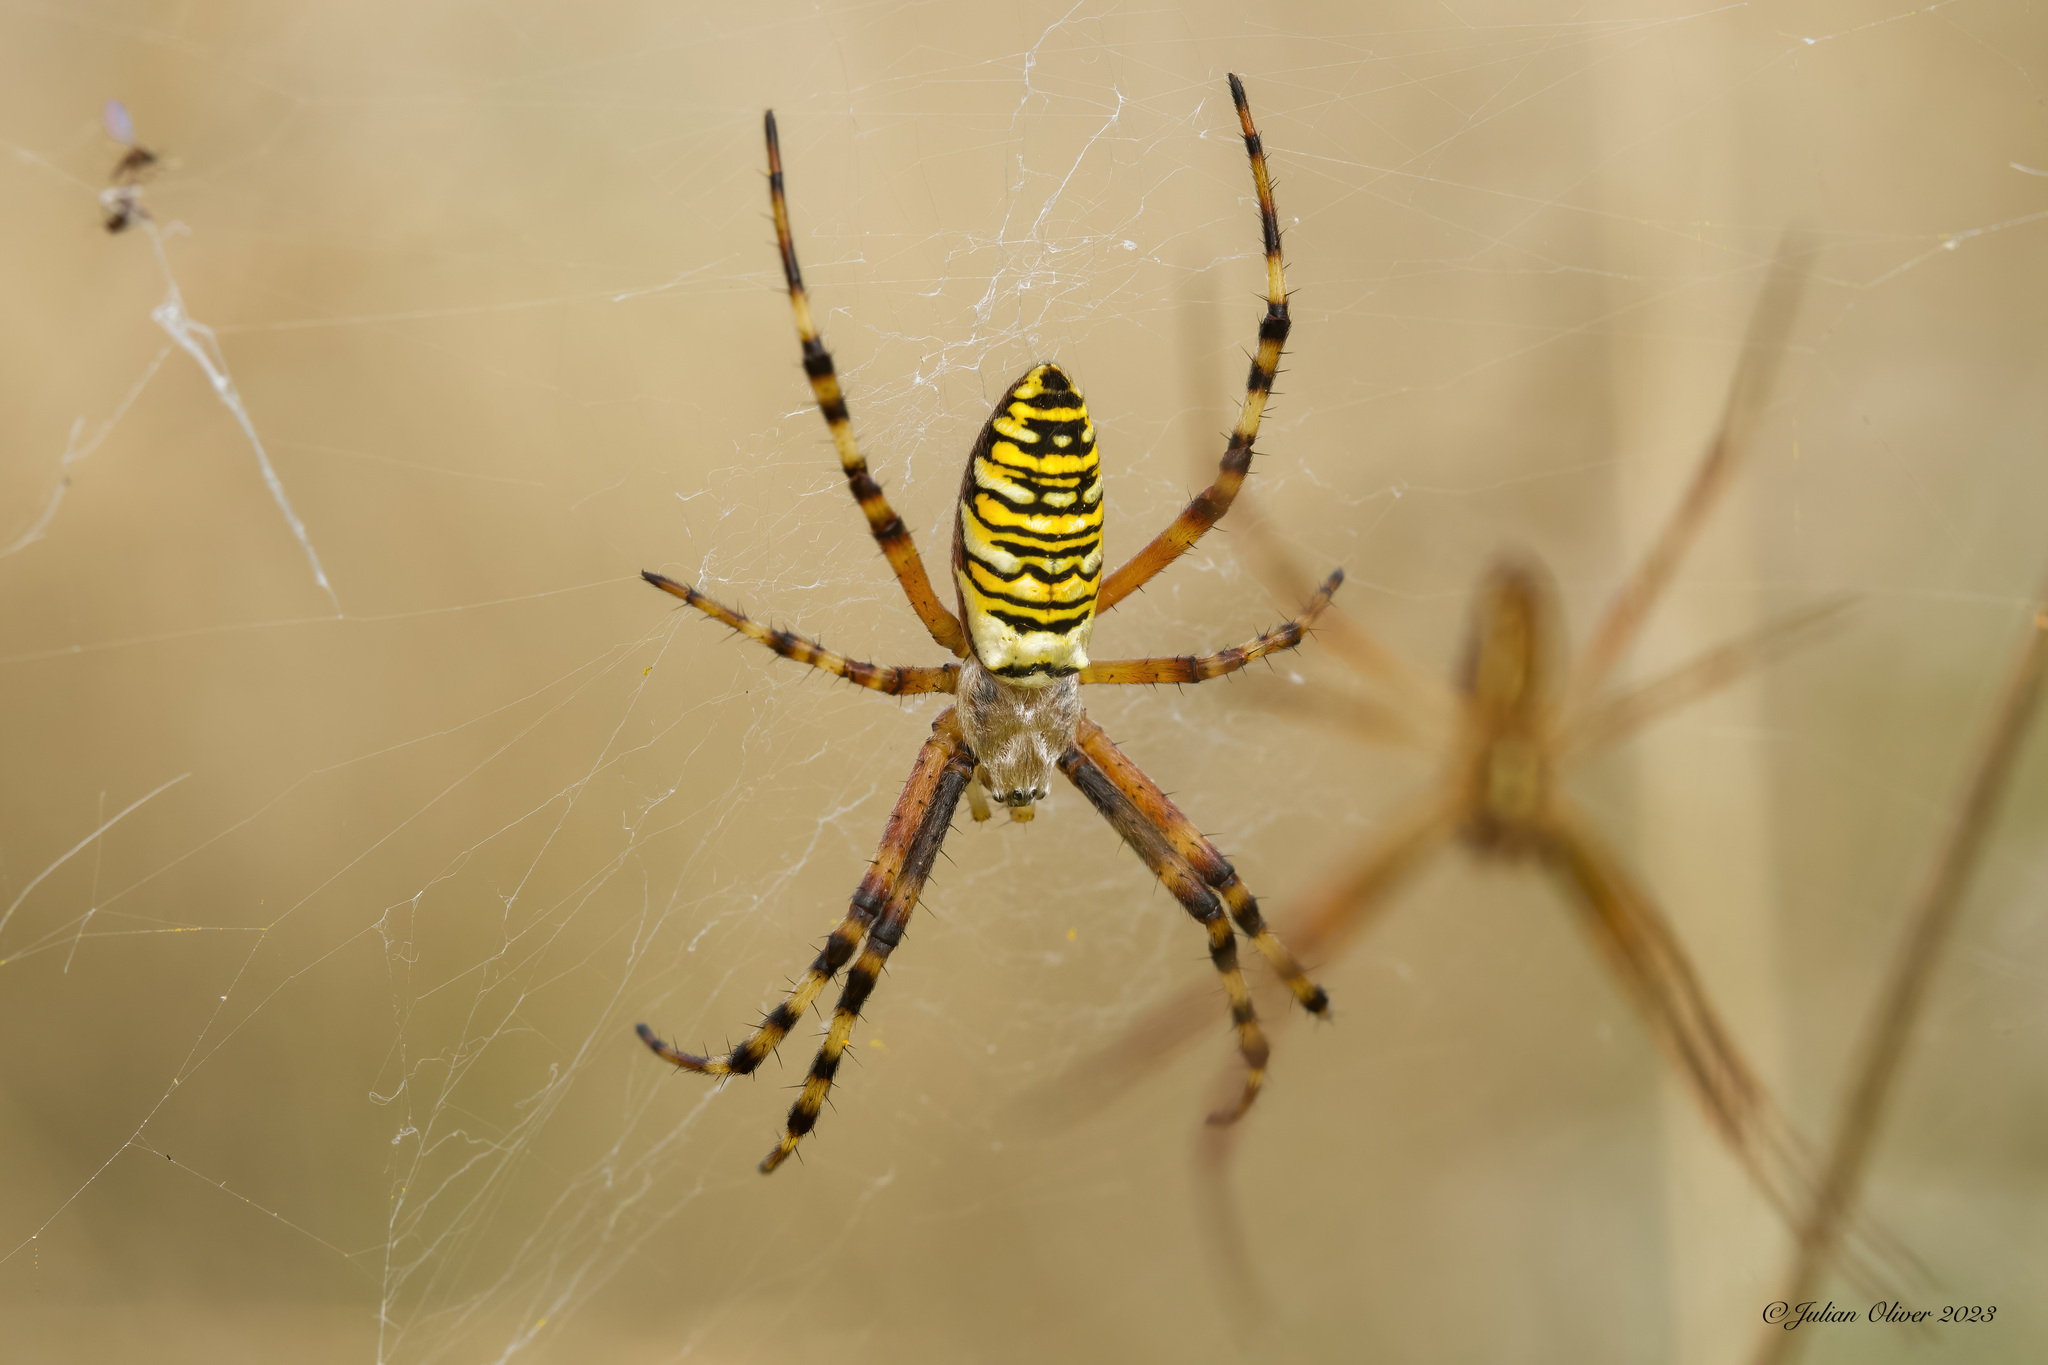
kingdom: Animalia
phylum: Arthropoda
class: Arachnida
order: Araneae
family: Araneidae
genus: Argiope
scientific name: Argiope bruennichi
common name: Wasp spider
